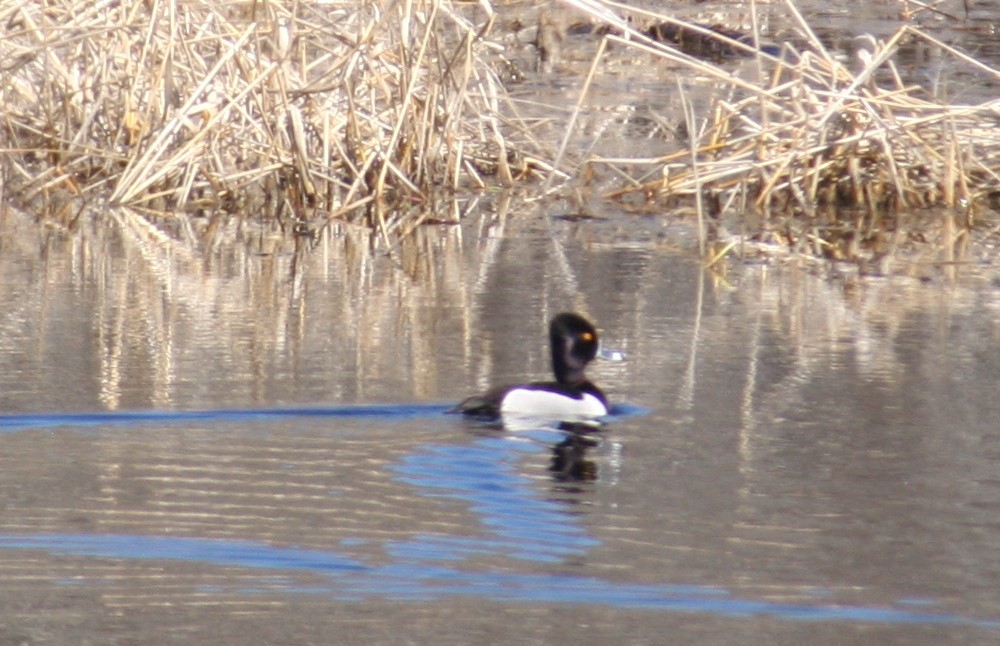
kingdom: Animalia
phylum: Chordata
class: Aves
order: Anseriformes
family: Anatidae
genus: Aythya
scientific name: Aythya collaris
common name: Ring-necked duck
